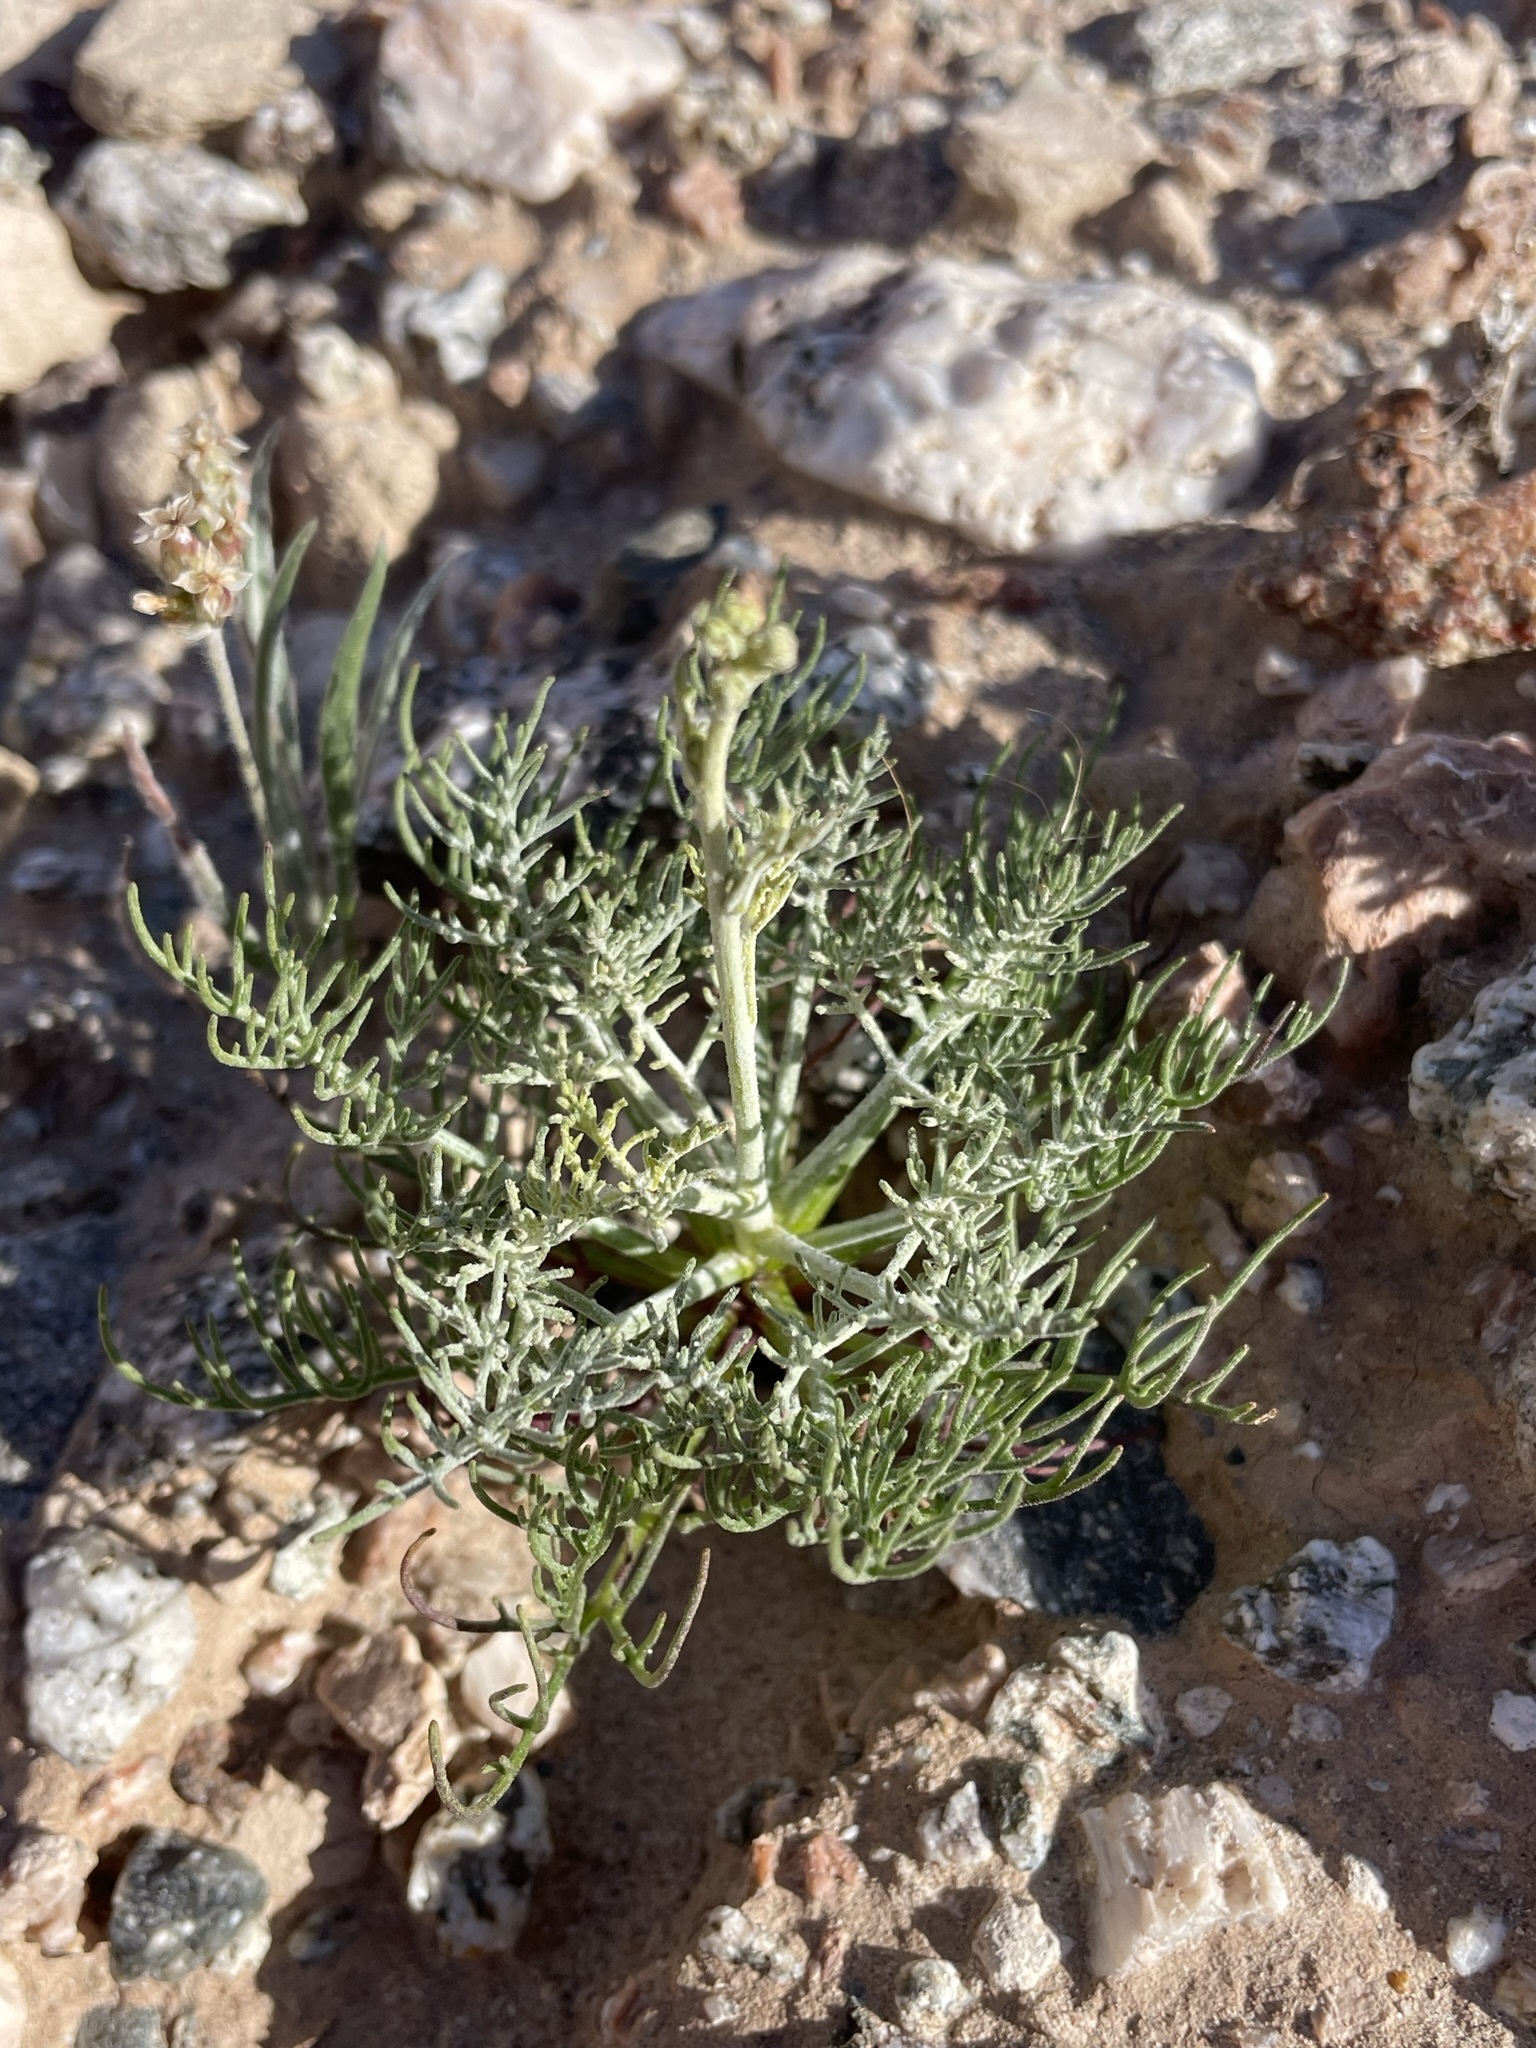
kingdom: Plantae
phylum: Tracheophyta
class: Magnoliopsida
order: Asterales
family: Asteraceae
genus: Chaenactis
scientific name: Chaenactis carphoclinia
